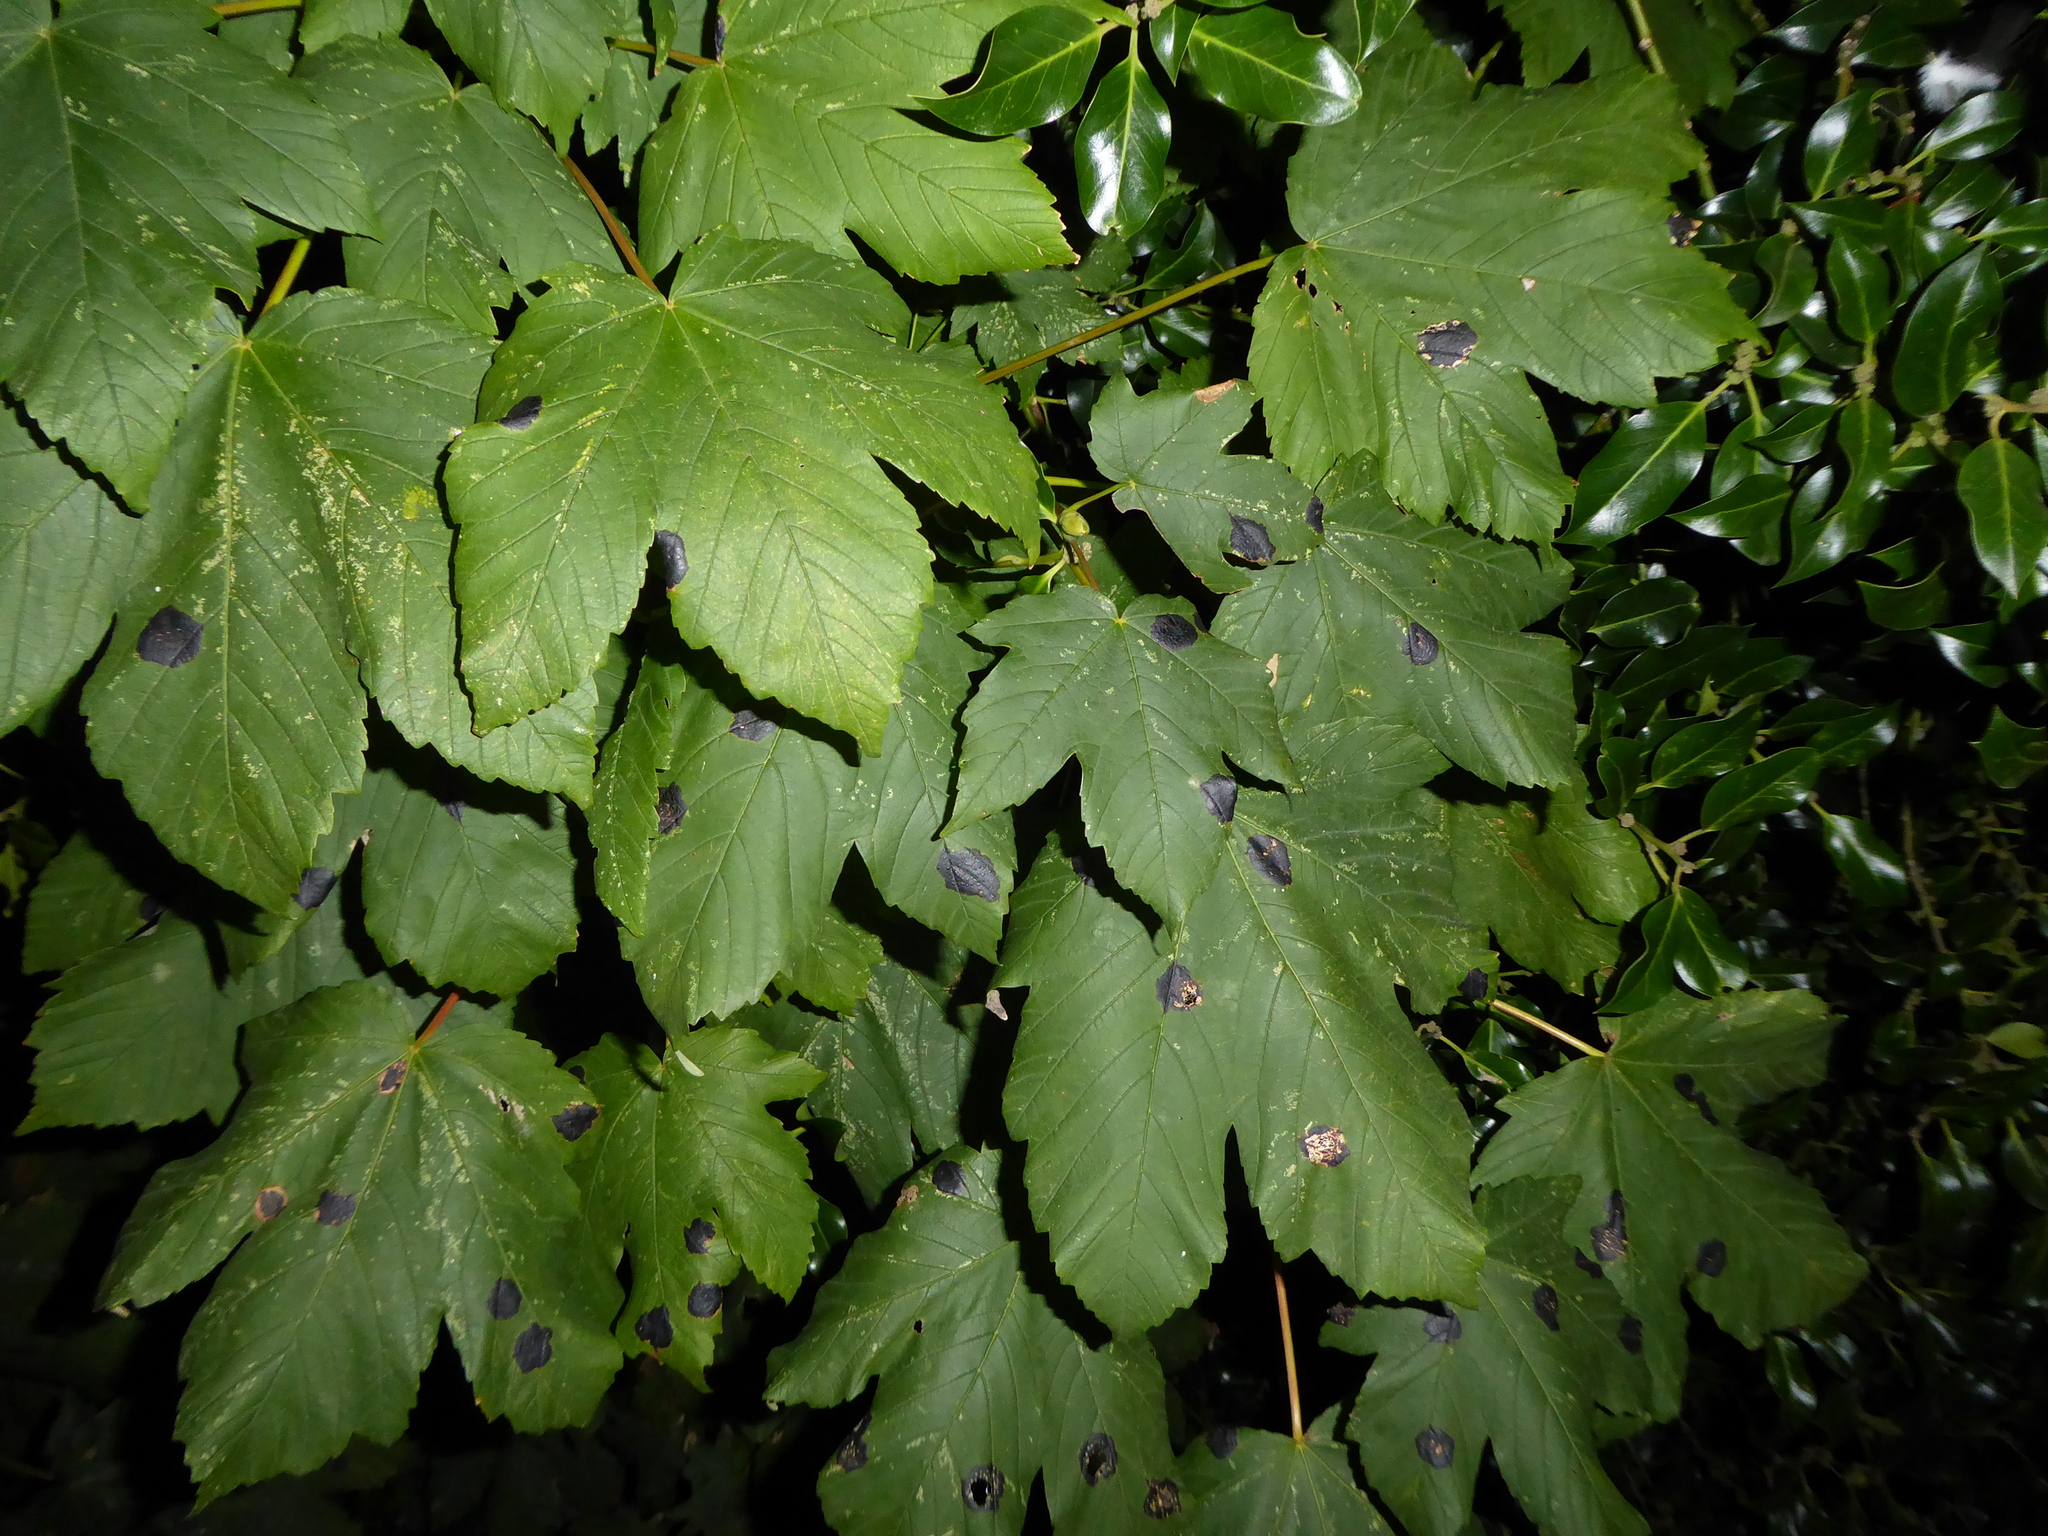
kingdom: Fungi
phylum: Ascomycota
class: Leotiomycetes
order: Rhytismatales
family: Rhytismataceae
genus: Rhytisma
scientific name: Rhytisma acerinum
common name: European tar spot
